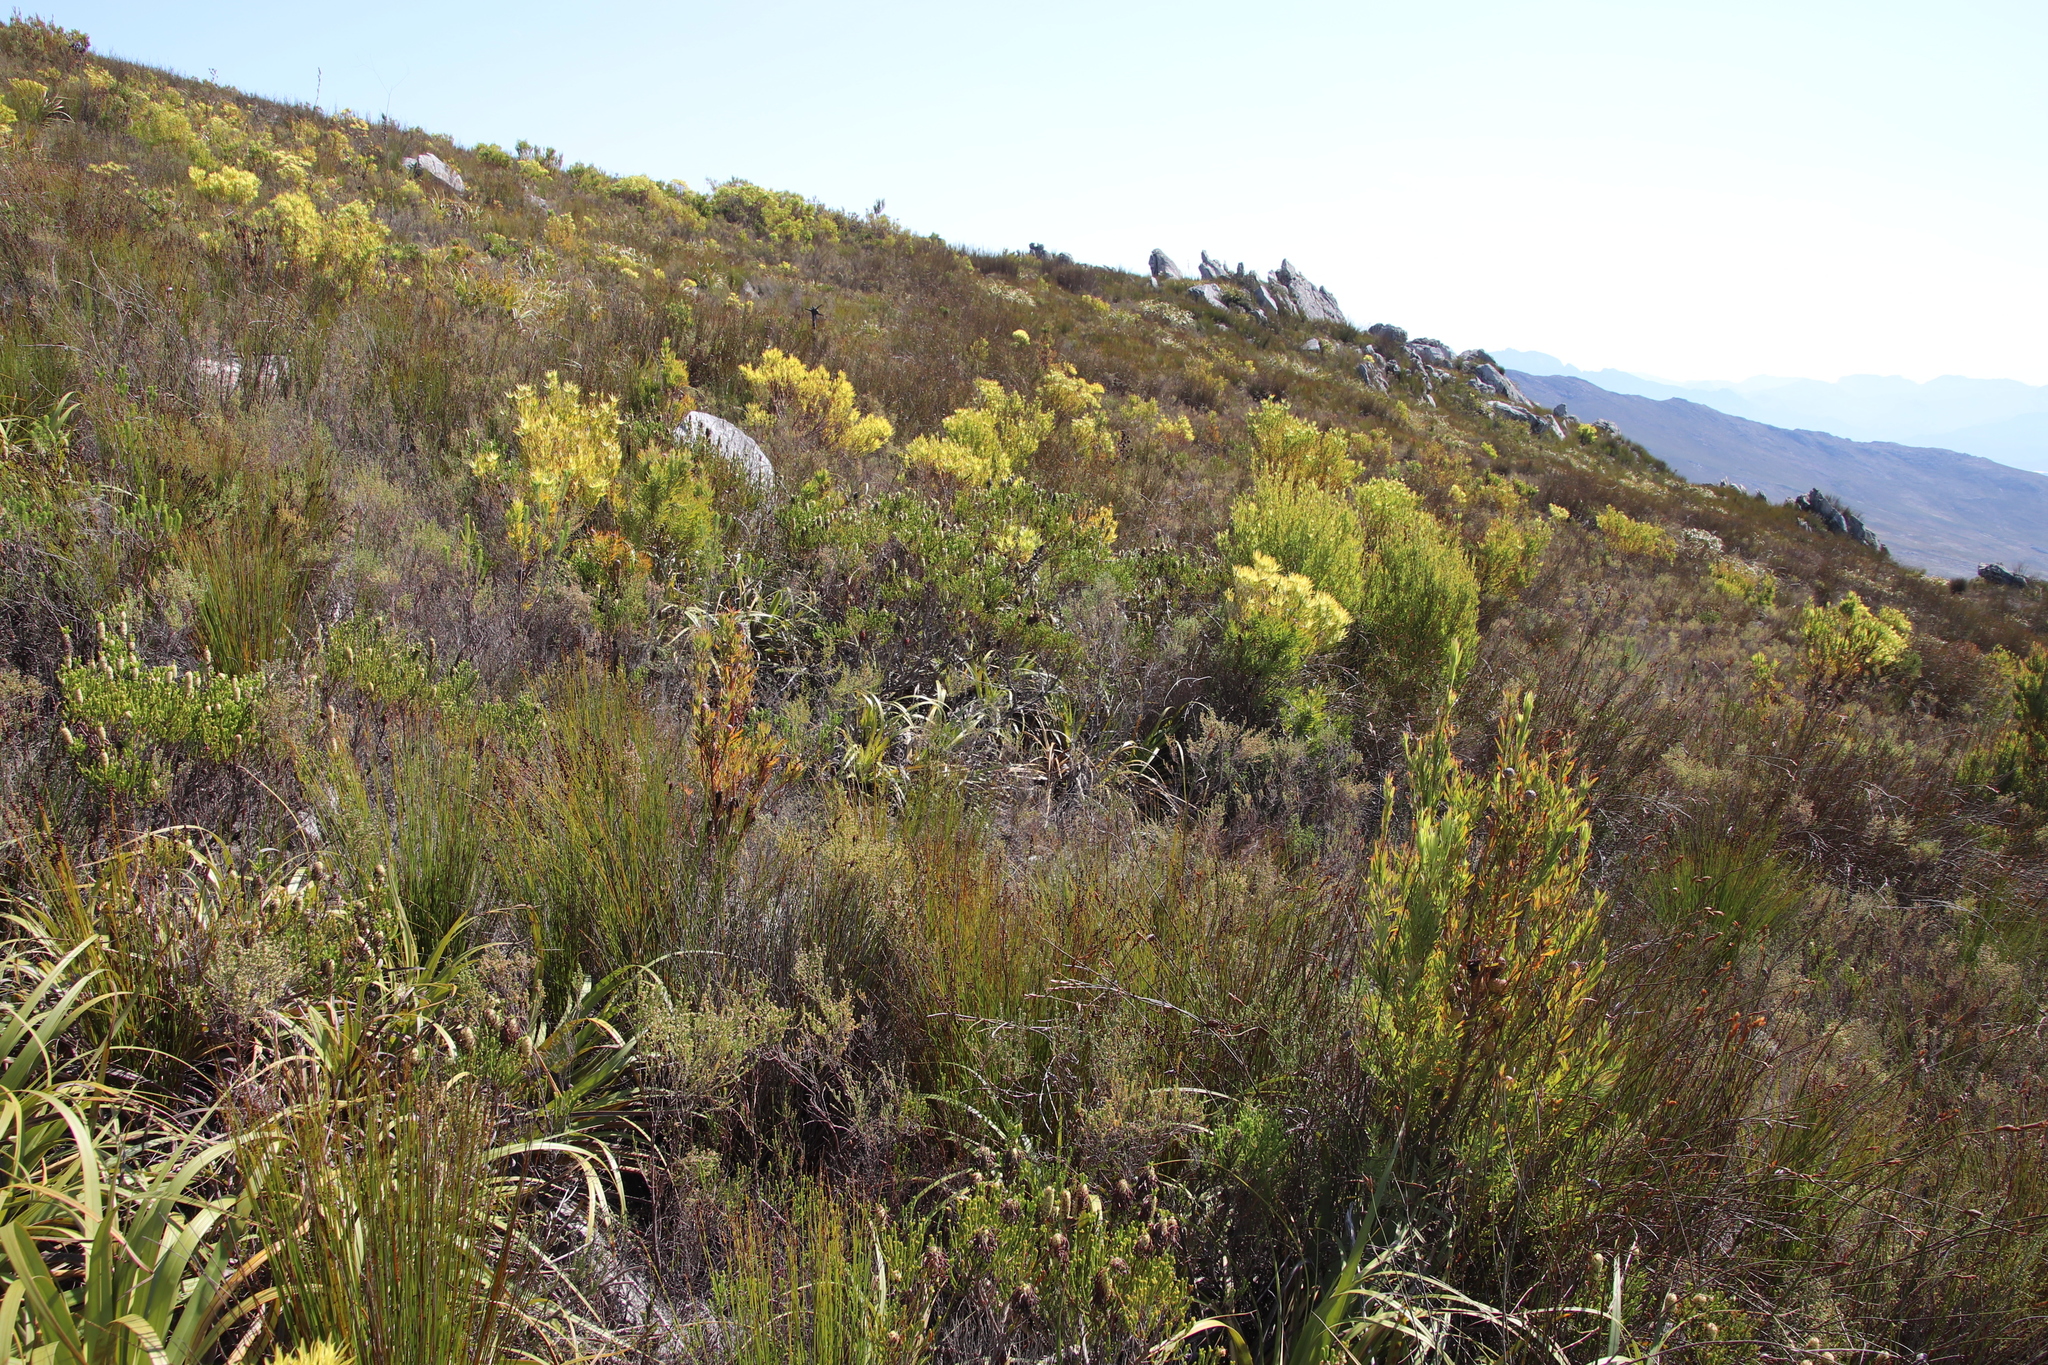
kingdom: Plantae
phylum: Tracheophyta
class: Magnoliopsida
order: Ericales
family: Ericaceae
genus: Erica
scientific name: Erica sessiliflora
